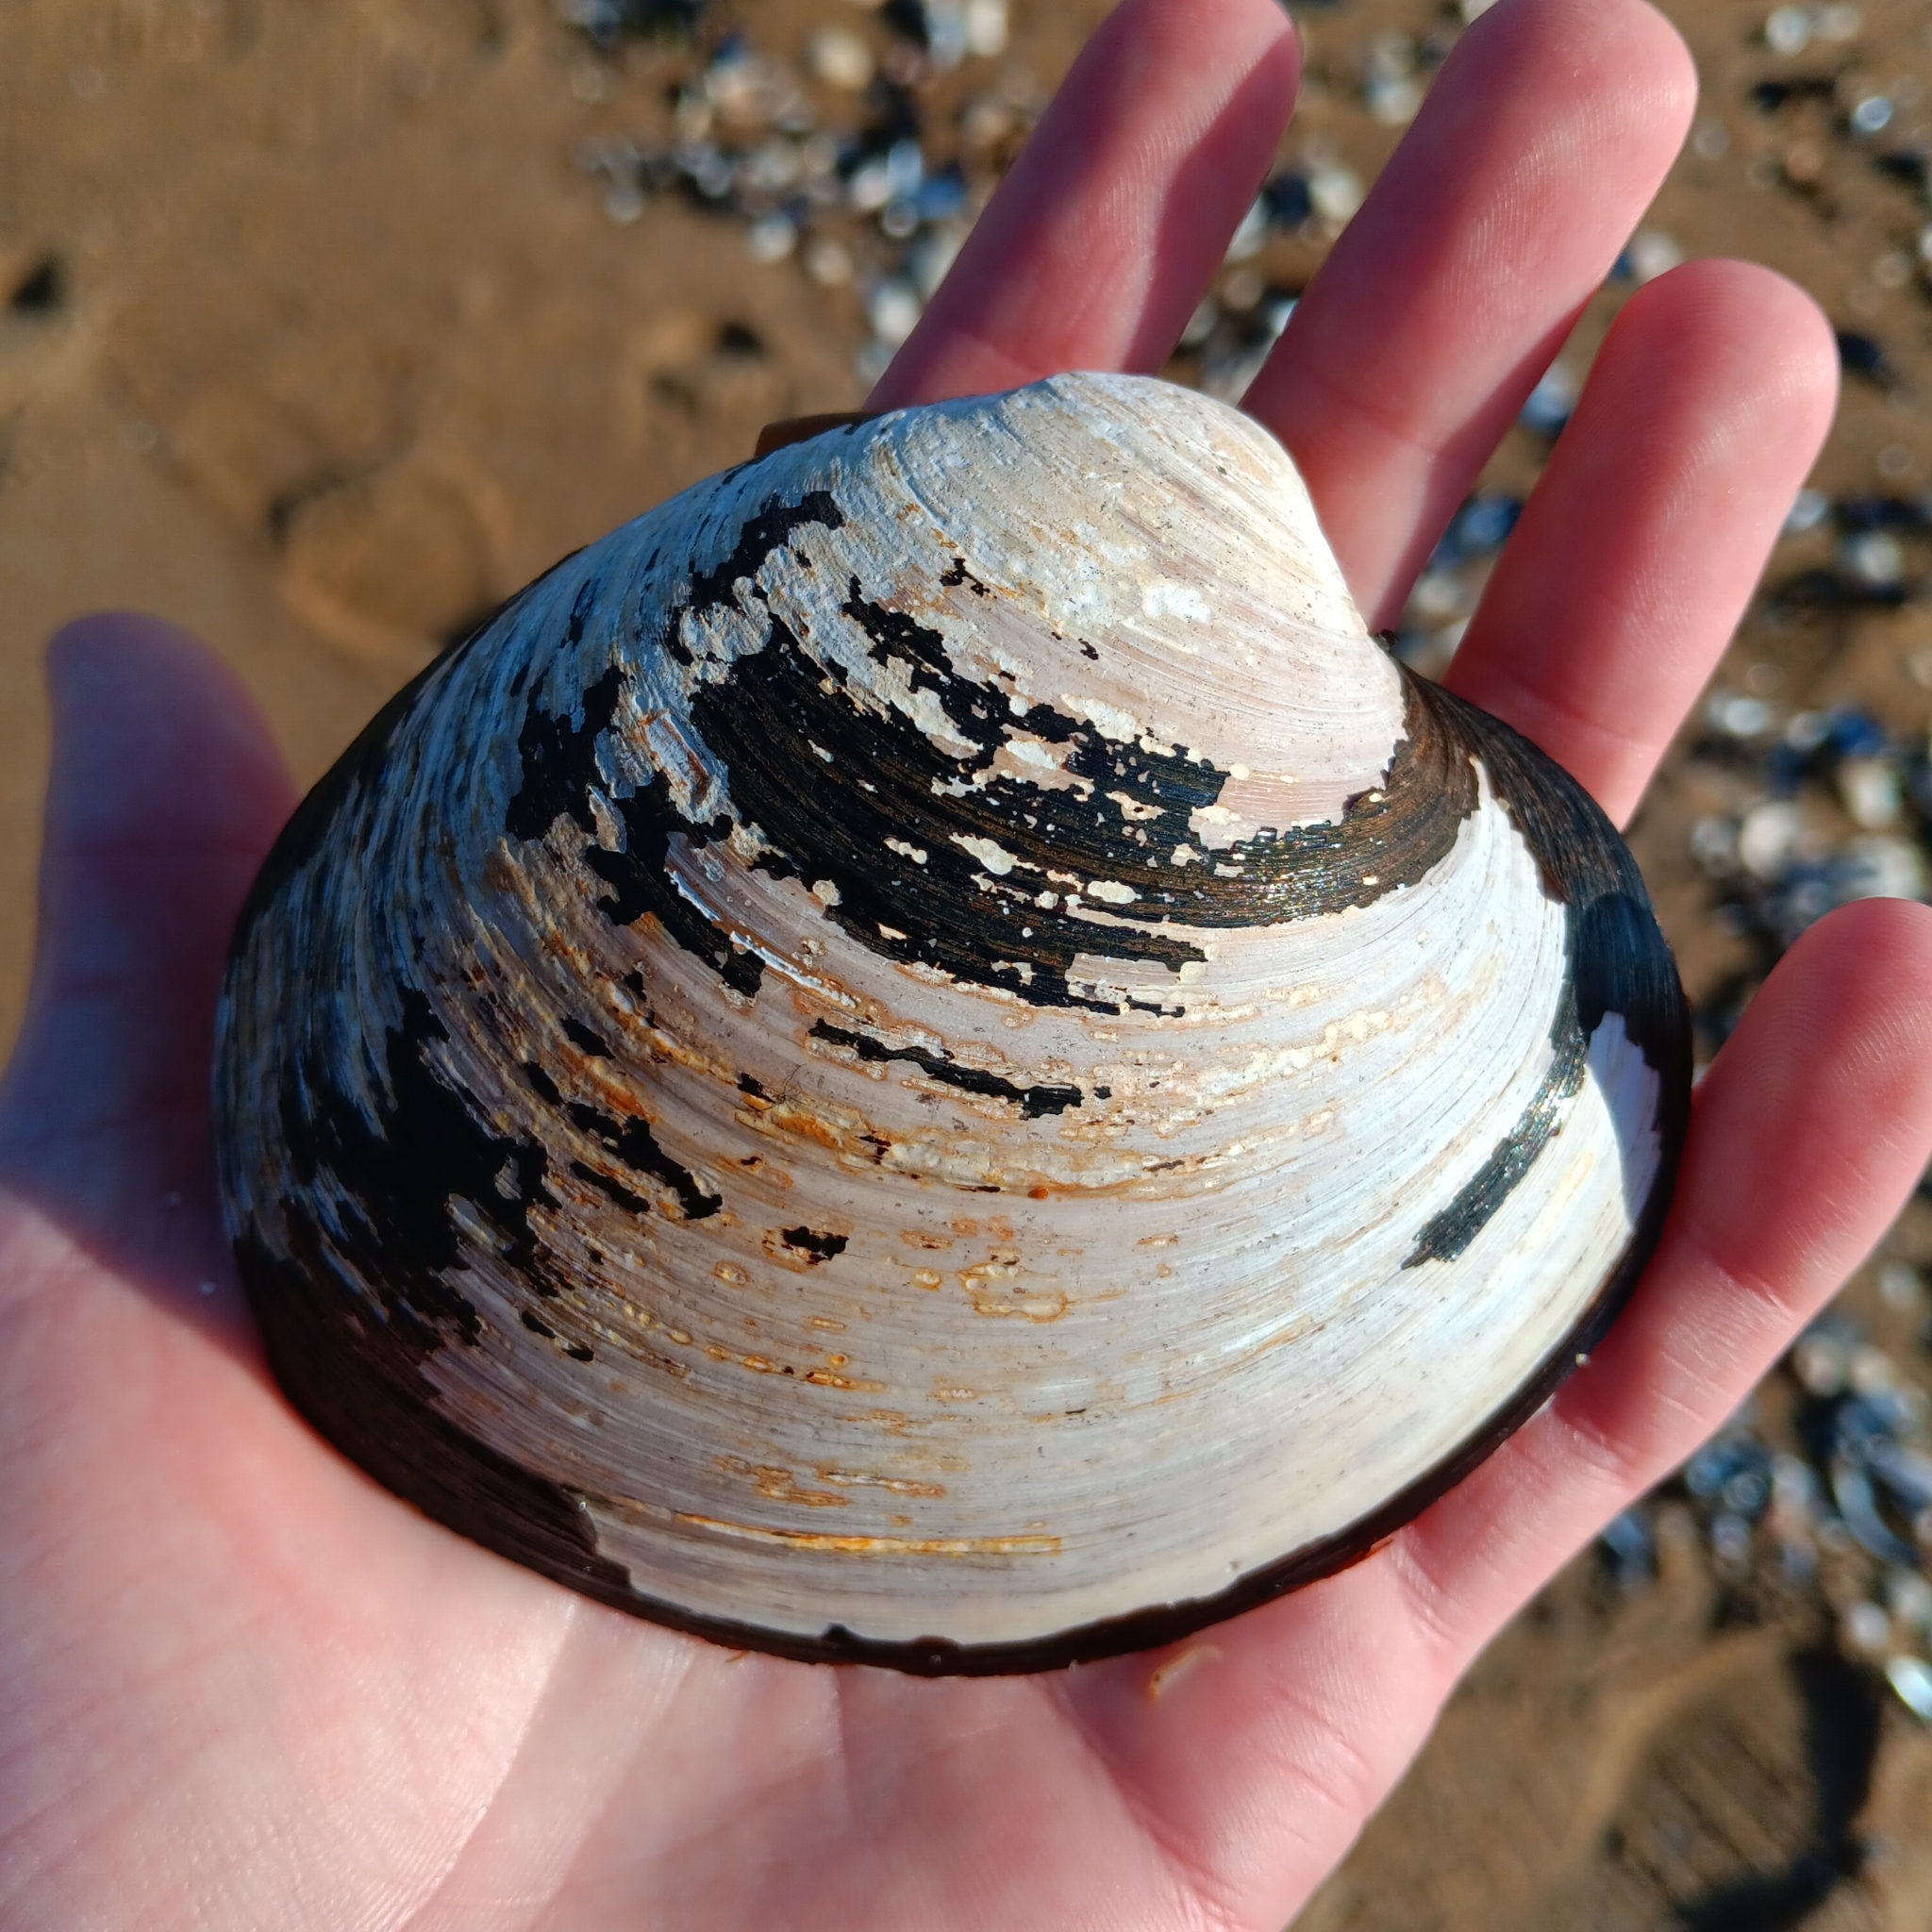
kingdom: Animalia
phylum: Mollusca
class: Bivalvia
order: Venerida
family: Arcticidae
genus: Arctica
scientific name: Arctica islandica
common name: Icelandic cyprine
